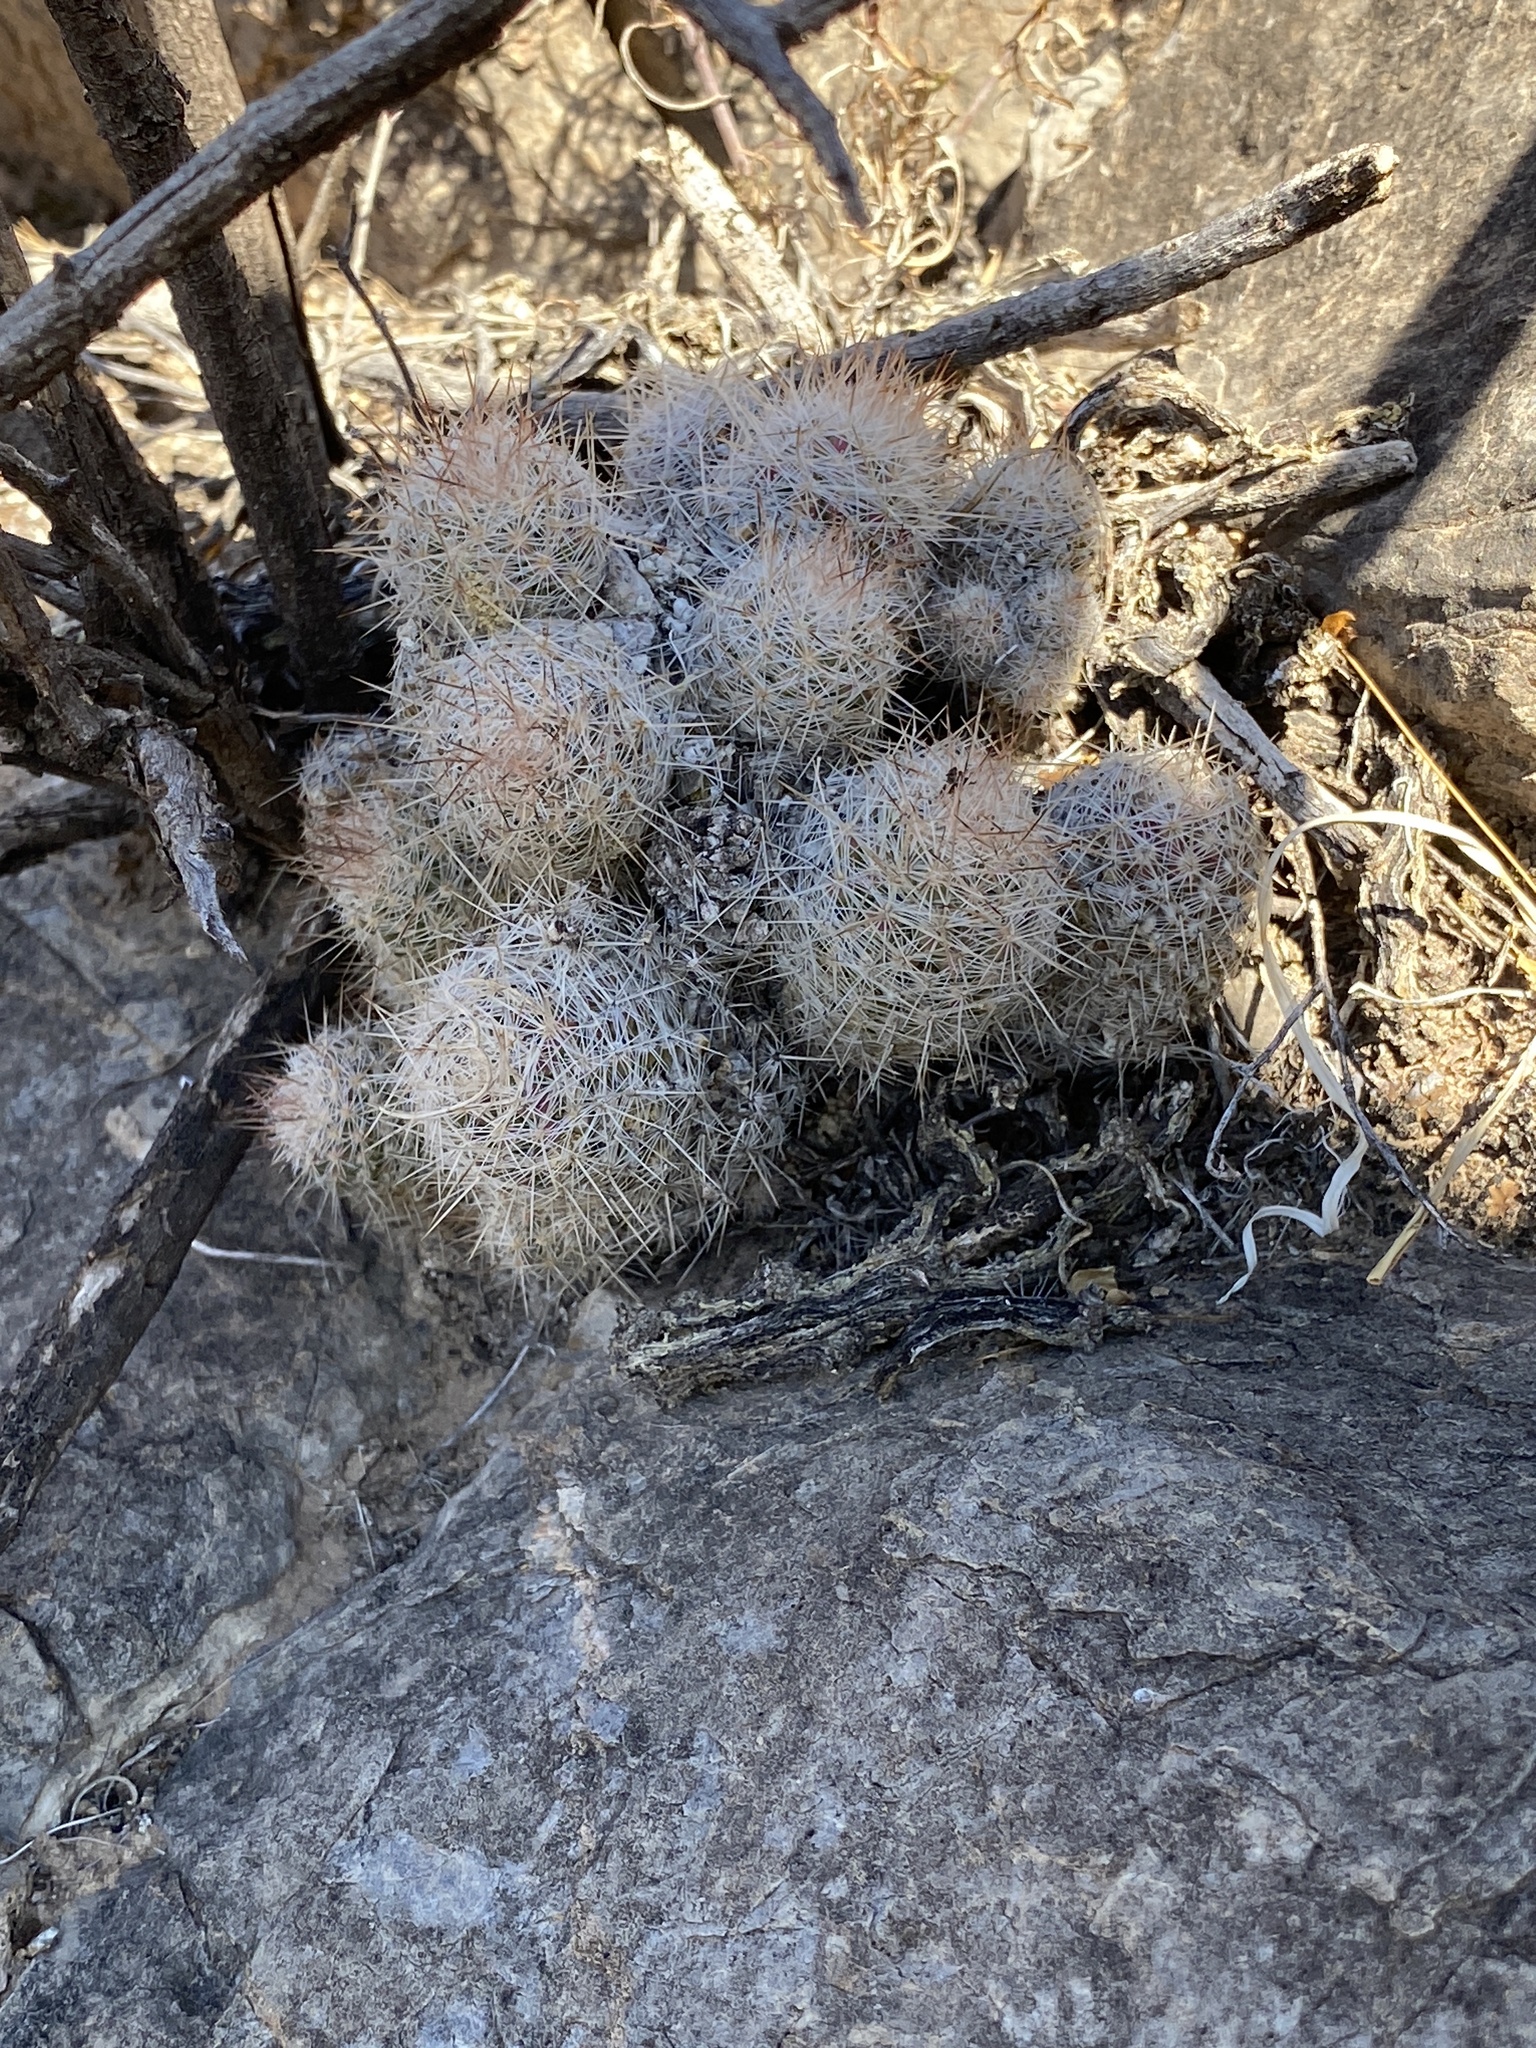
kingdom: Plantae
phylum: Tracheophyta
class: Magnoliopsida
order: Caryophyllales
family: Cactaceae
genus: Pelecyphora
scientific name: Pelecyphora tuberculosa
